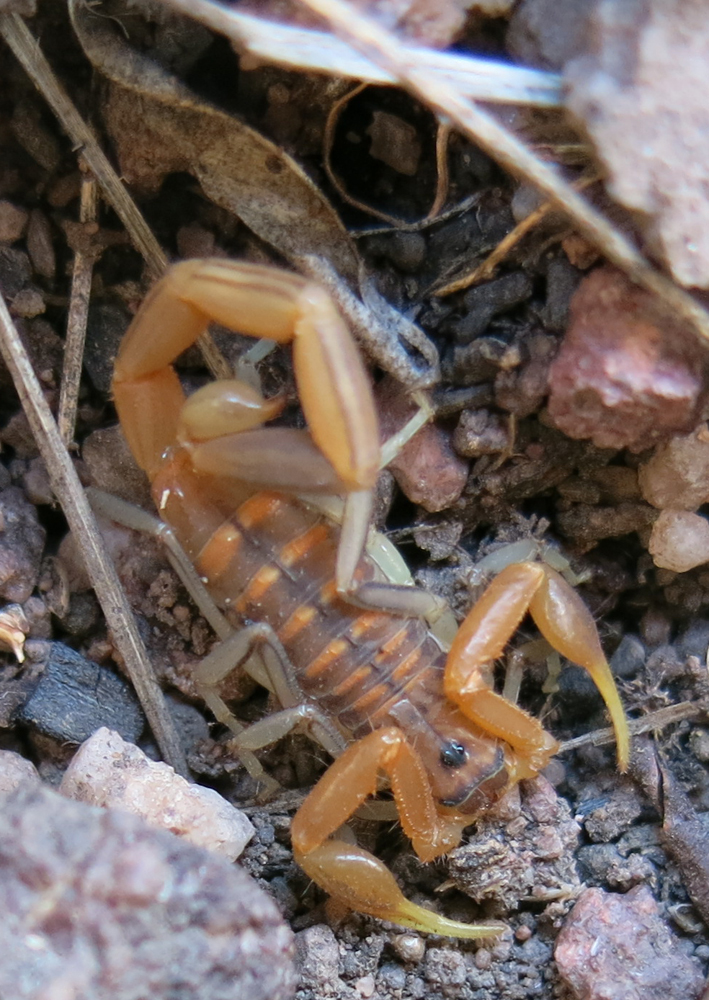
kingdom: Animalia
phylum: Arthropoda
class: Arachnida
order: Scorpiones
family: Buthidae
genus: Uroplectes
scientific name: Uroplectes planimanus
